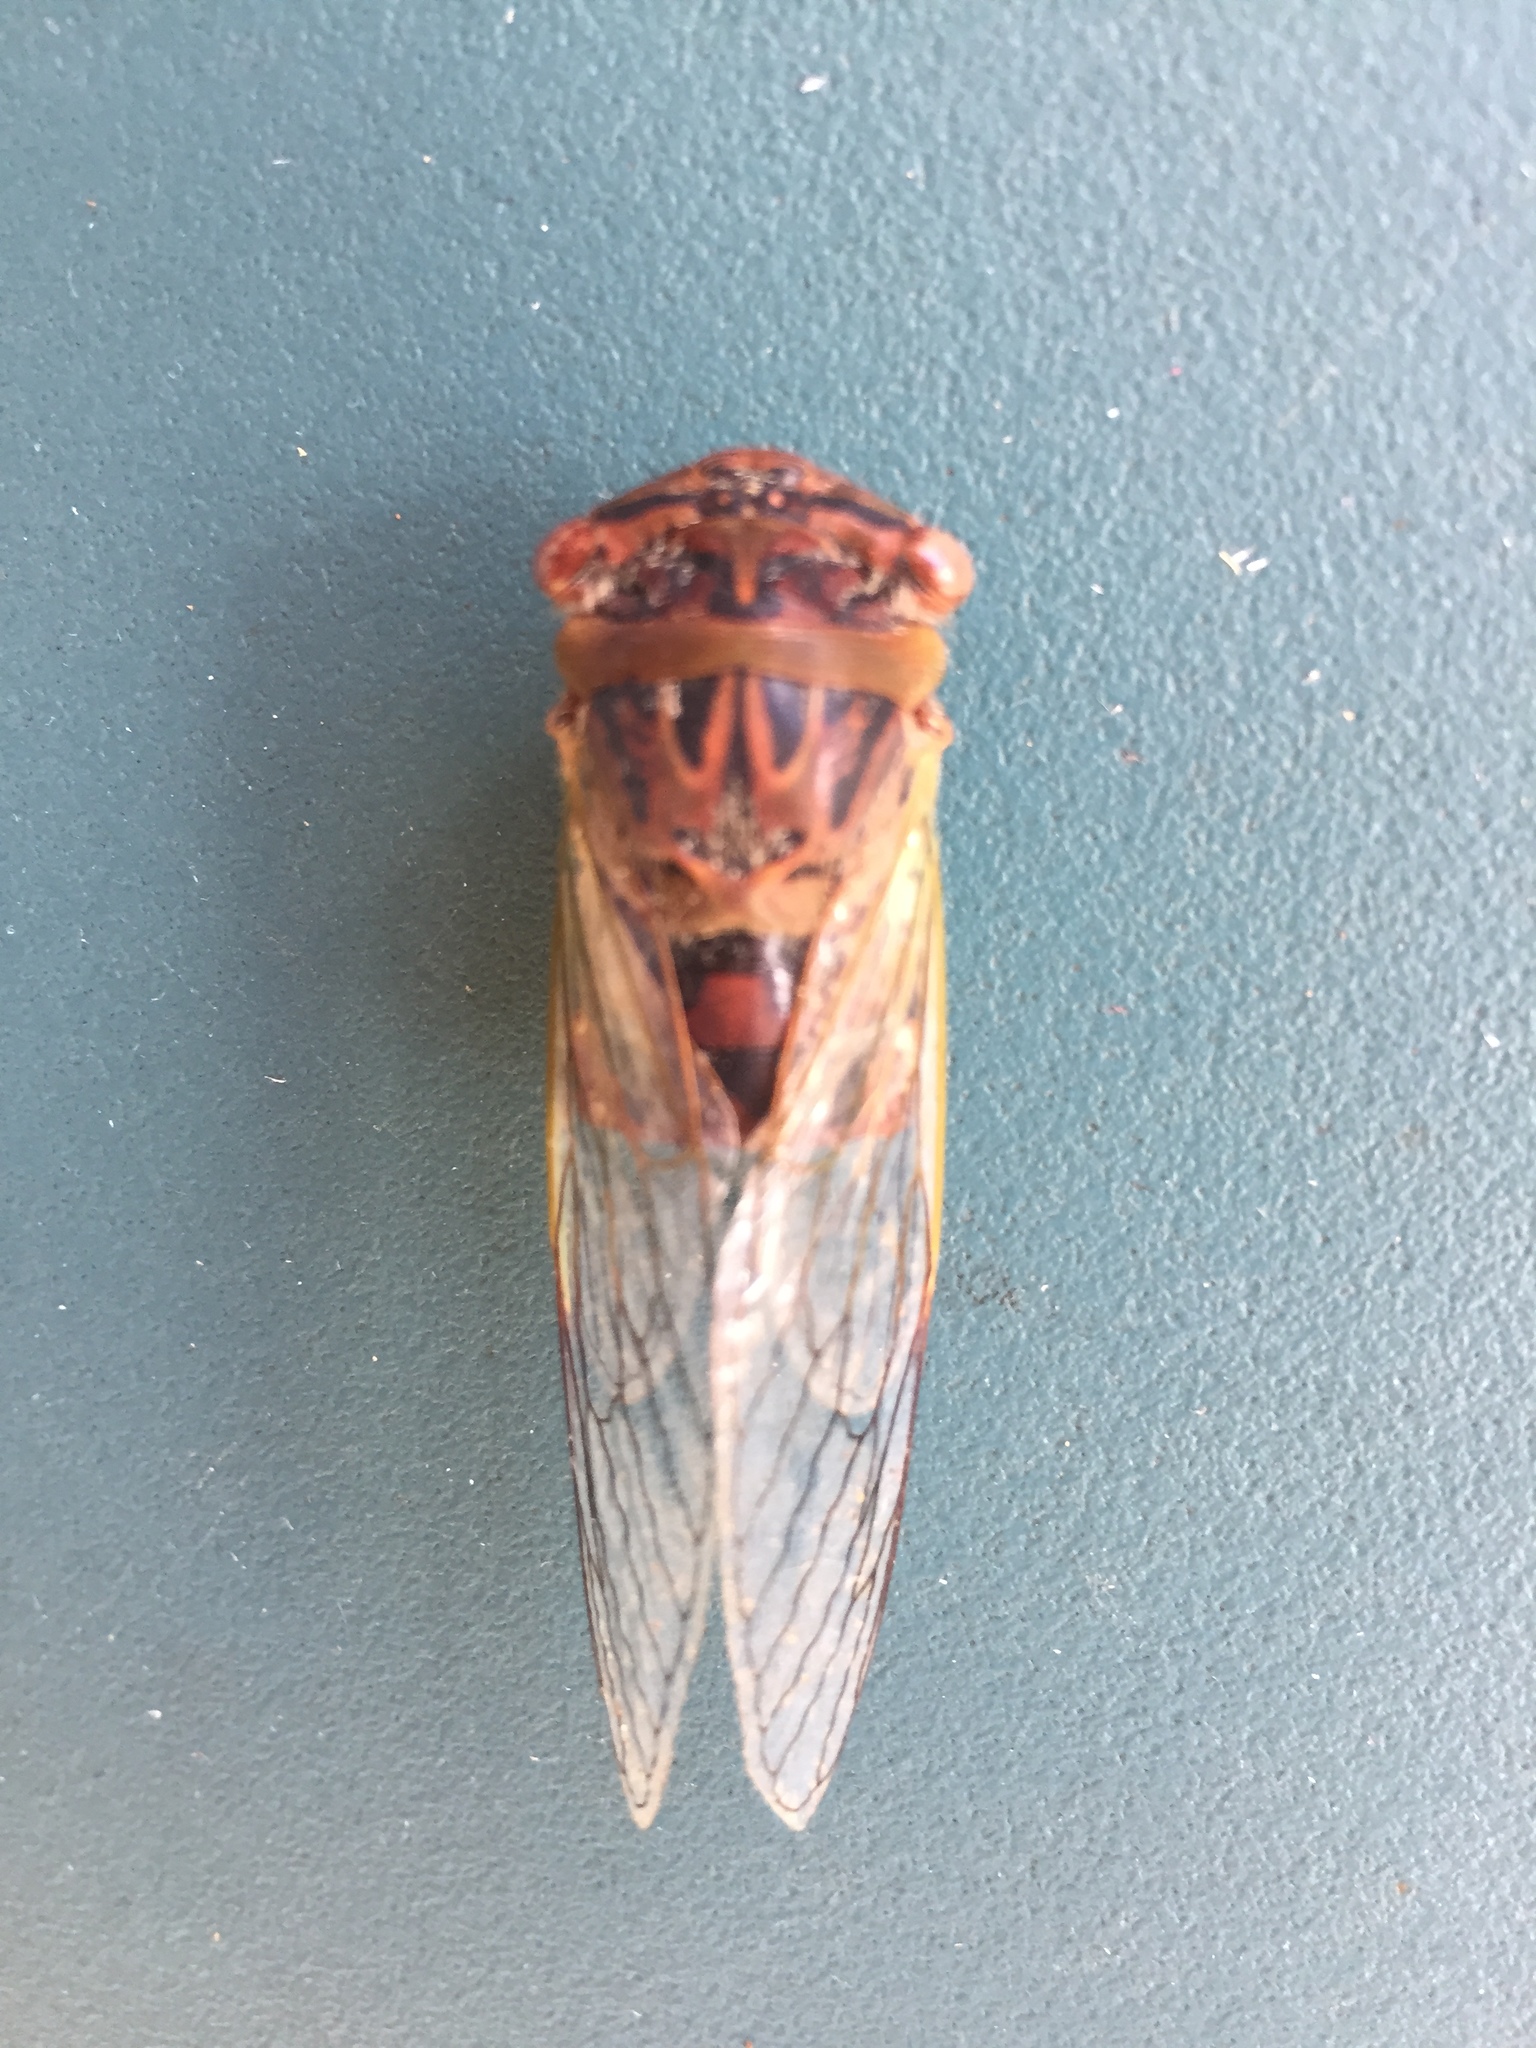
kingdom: Animalia
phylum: Arthropoda
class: Insecta
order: Hemiptera
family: Cicadidae
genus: Psaltoda
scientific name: Psaltoda claripennis
